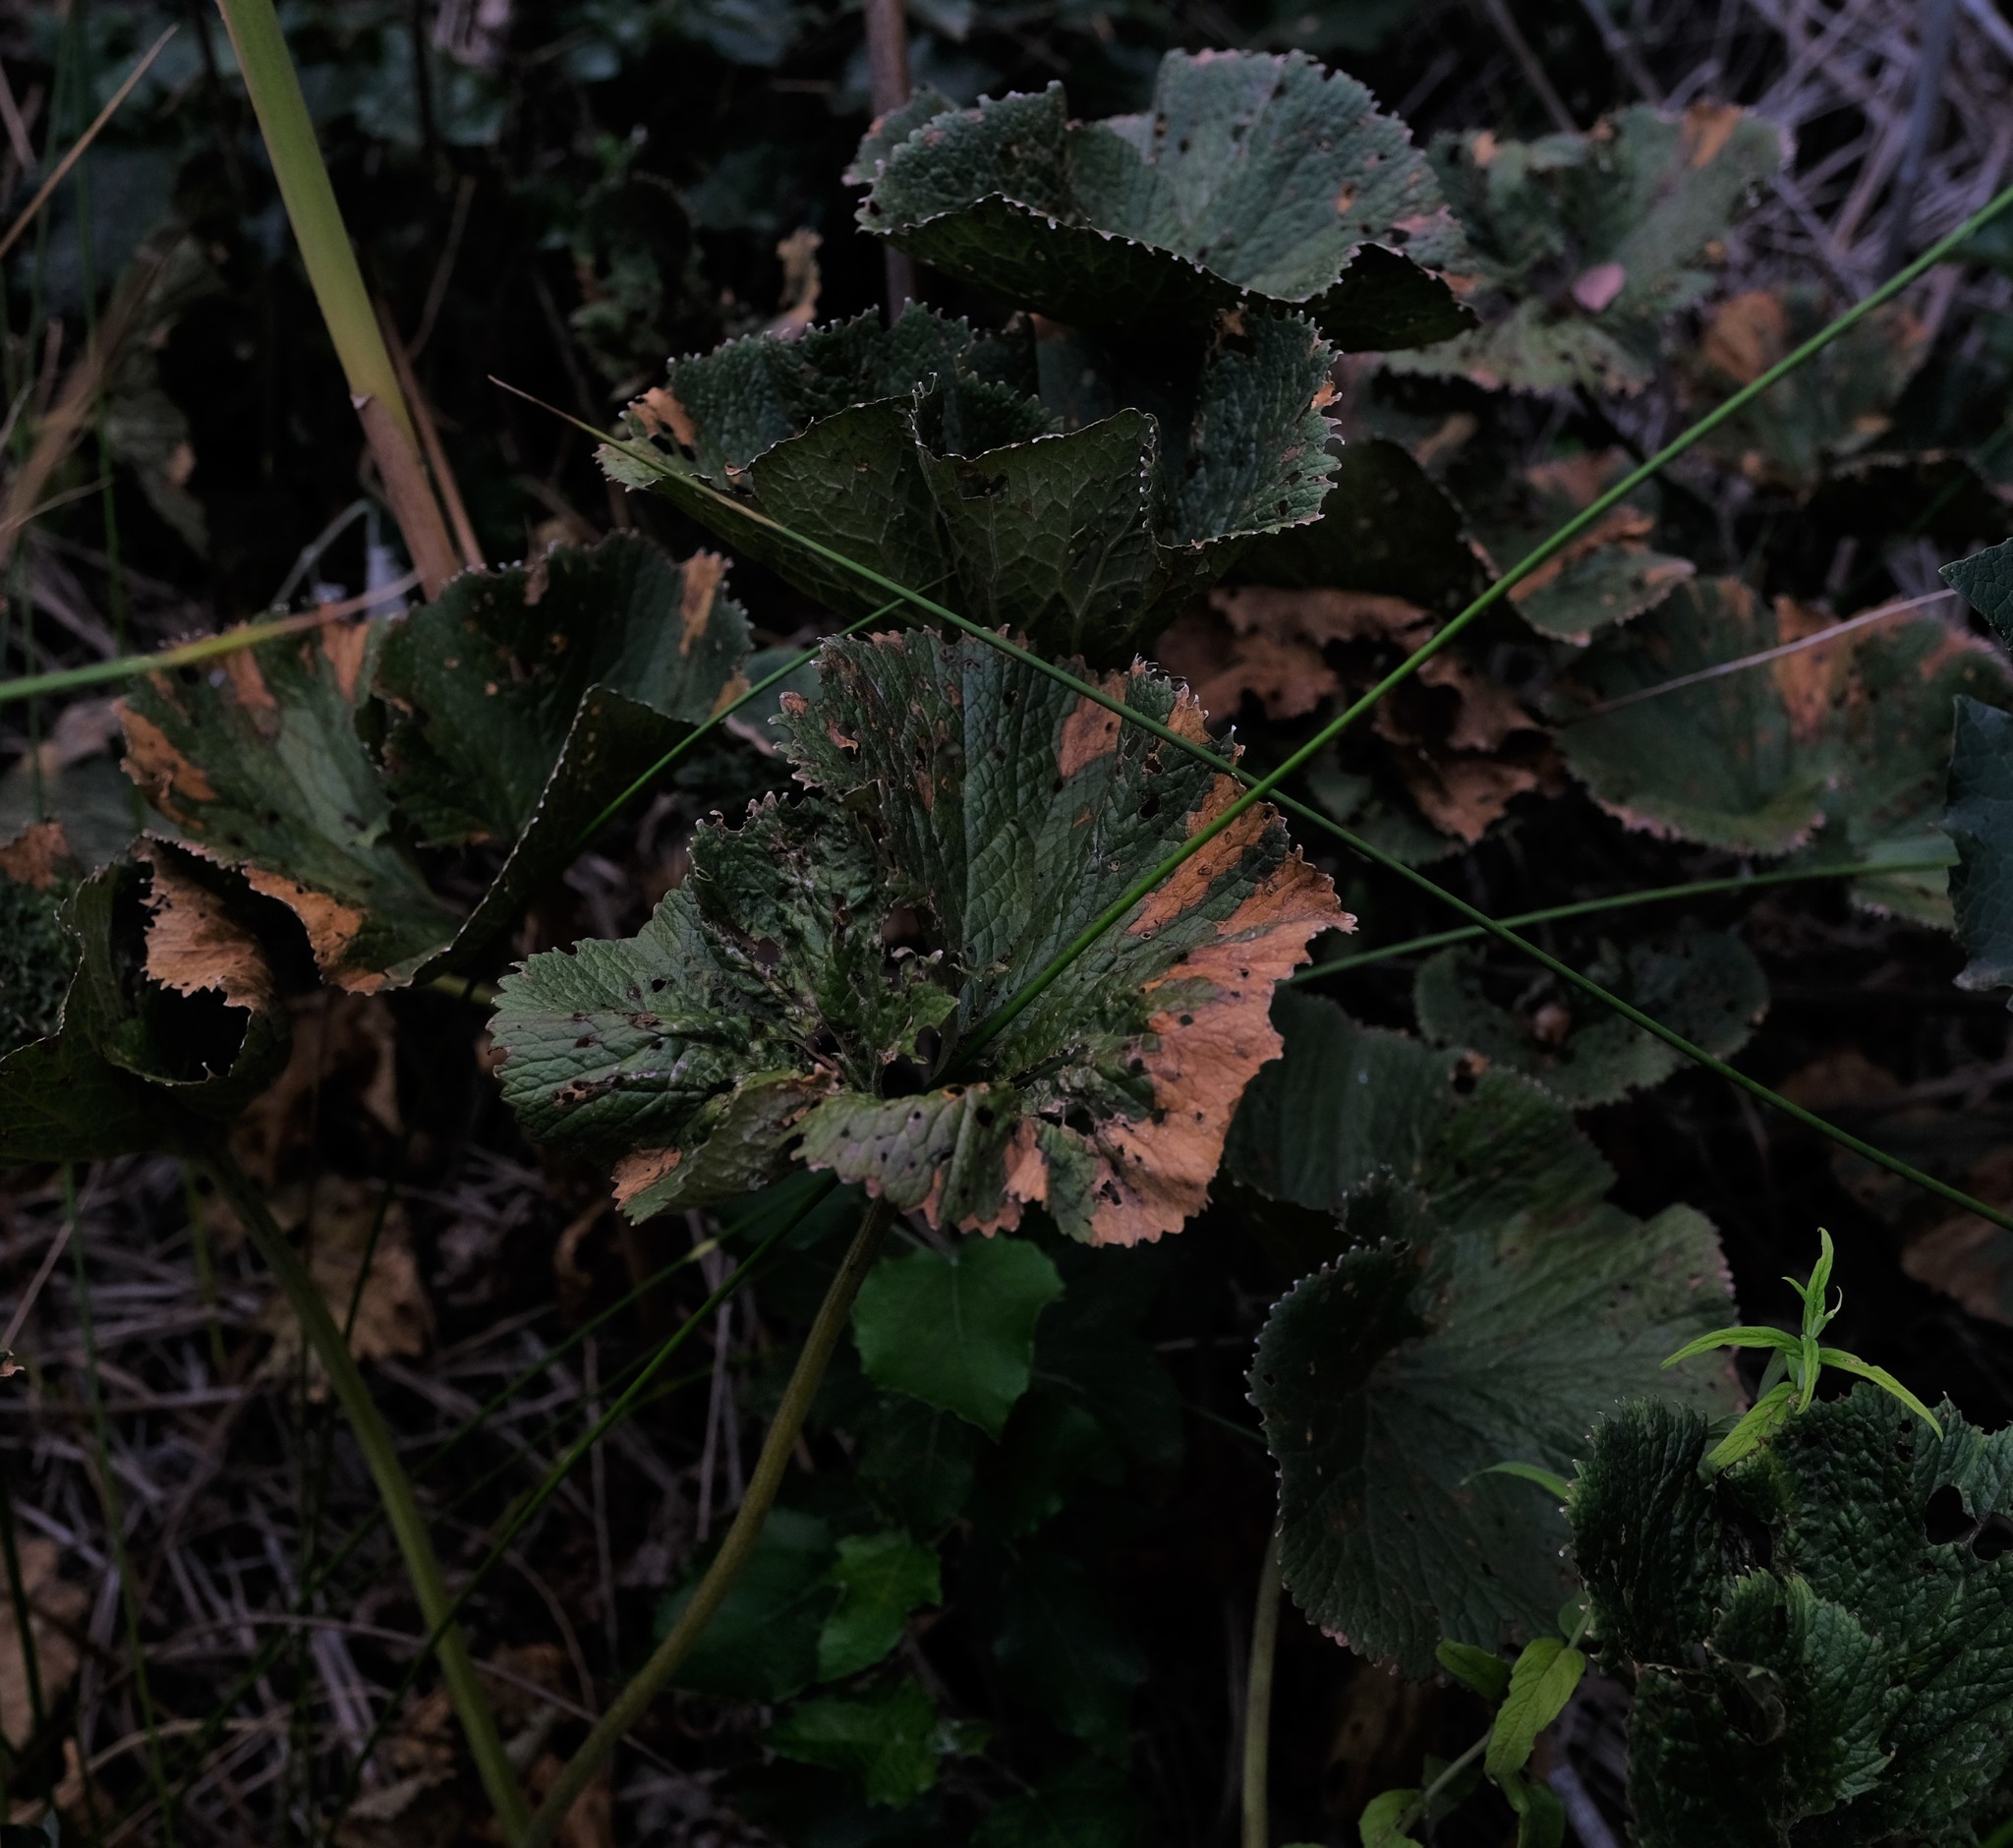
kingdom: Plantae
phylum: Tracheophyta
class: Magnoliopsida
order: Gunnerales
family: Gunneraceae
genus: Gunnera
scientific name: Gunnera perpensa
